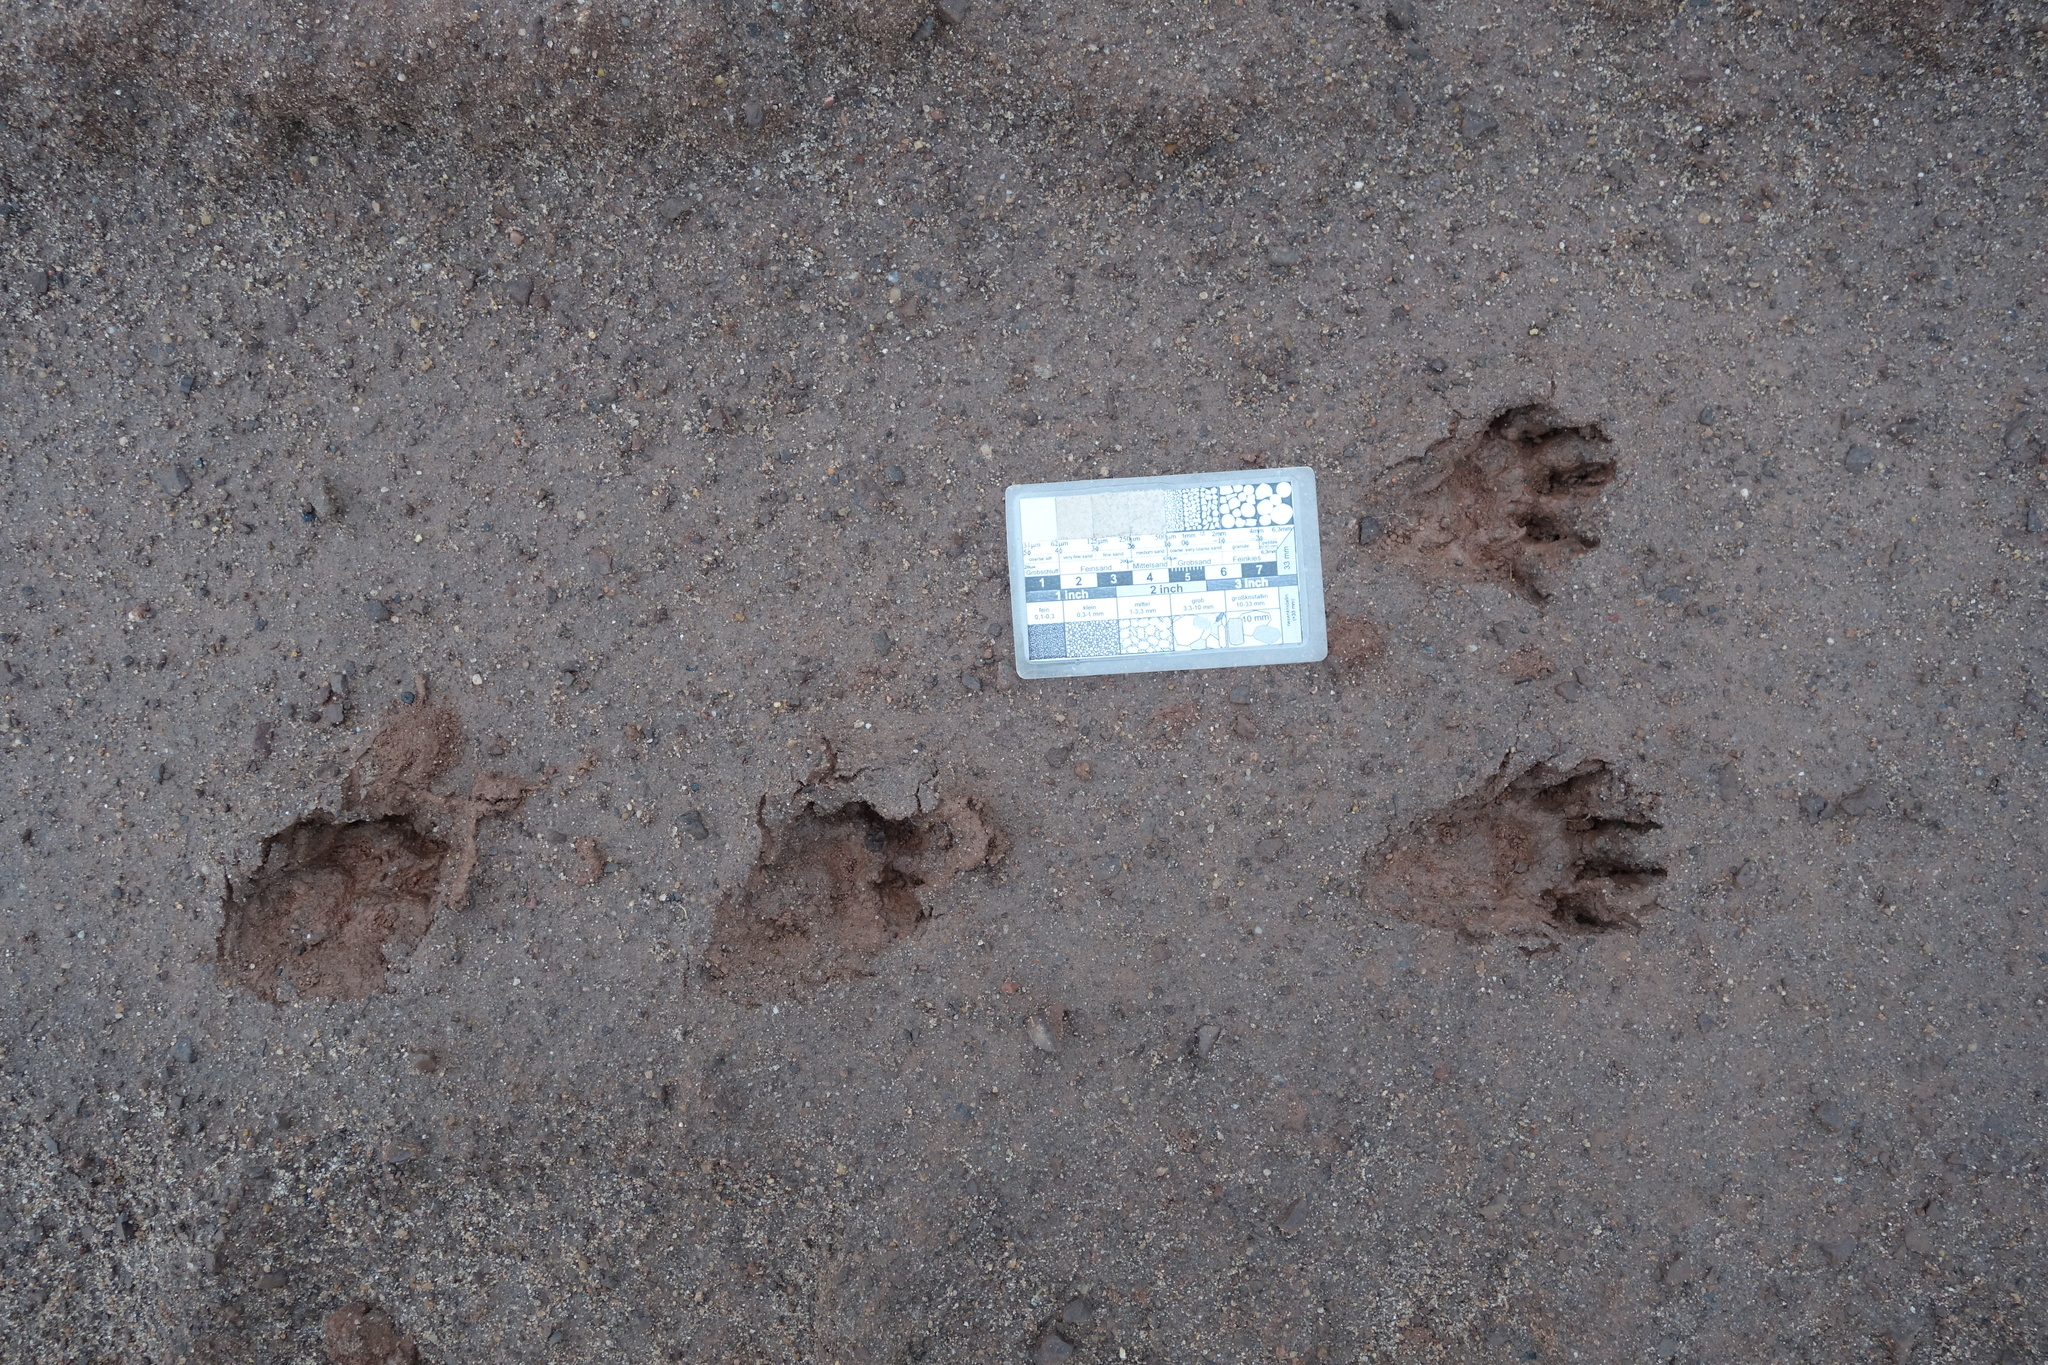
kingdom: Animalia
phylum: Chordata
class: Mammalia
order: Carnivora
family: Procyonidae
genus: Procyon
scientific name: Procyon lotor
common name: Raccoon
